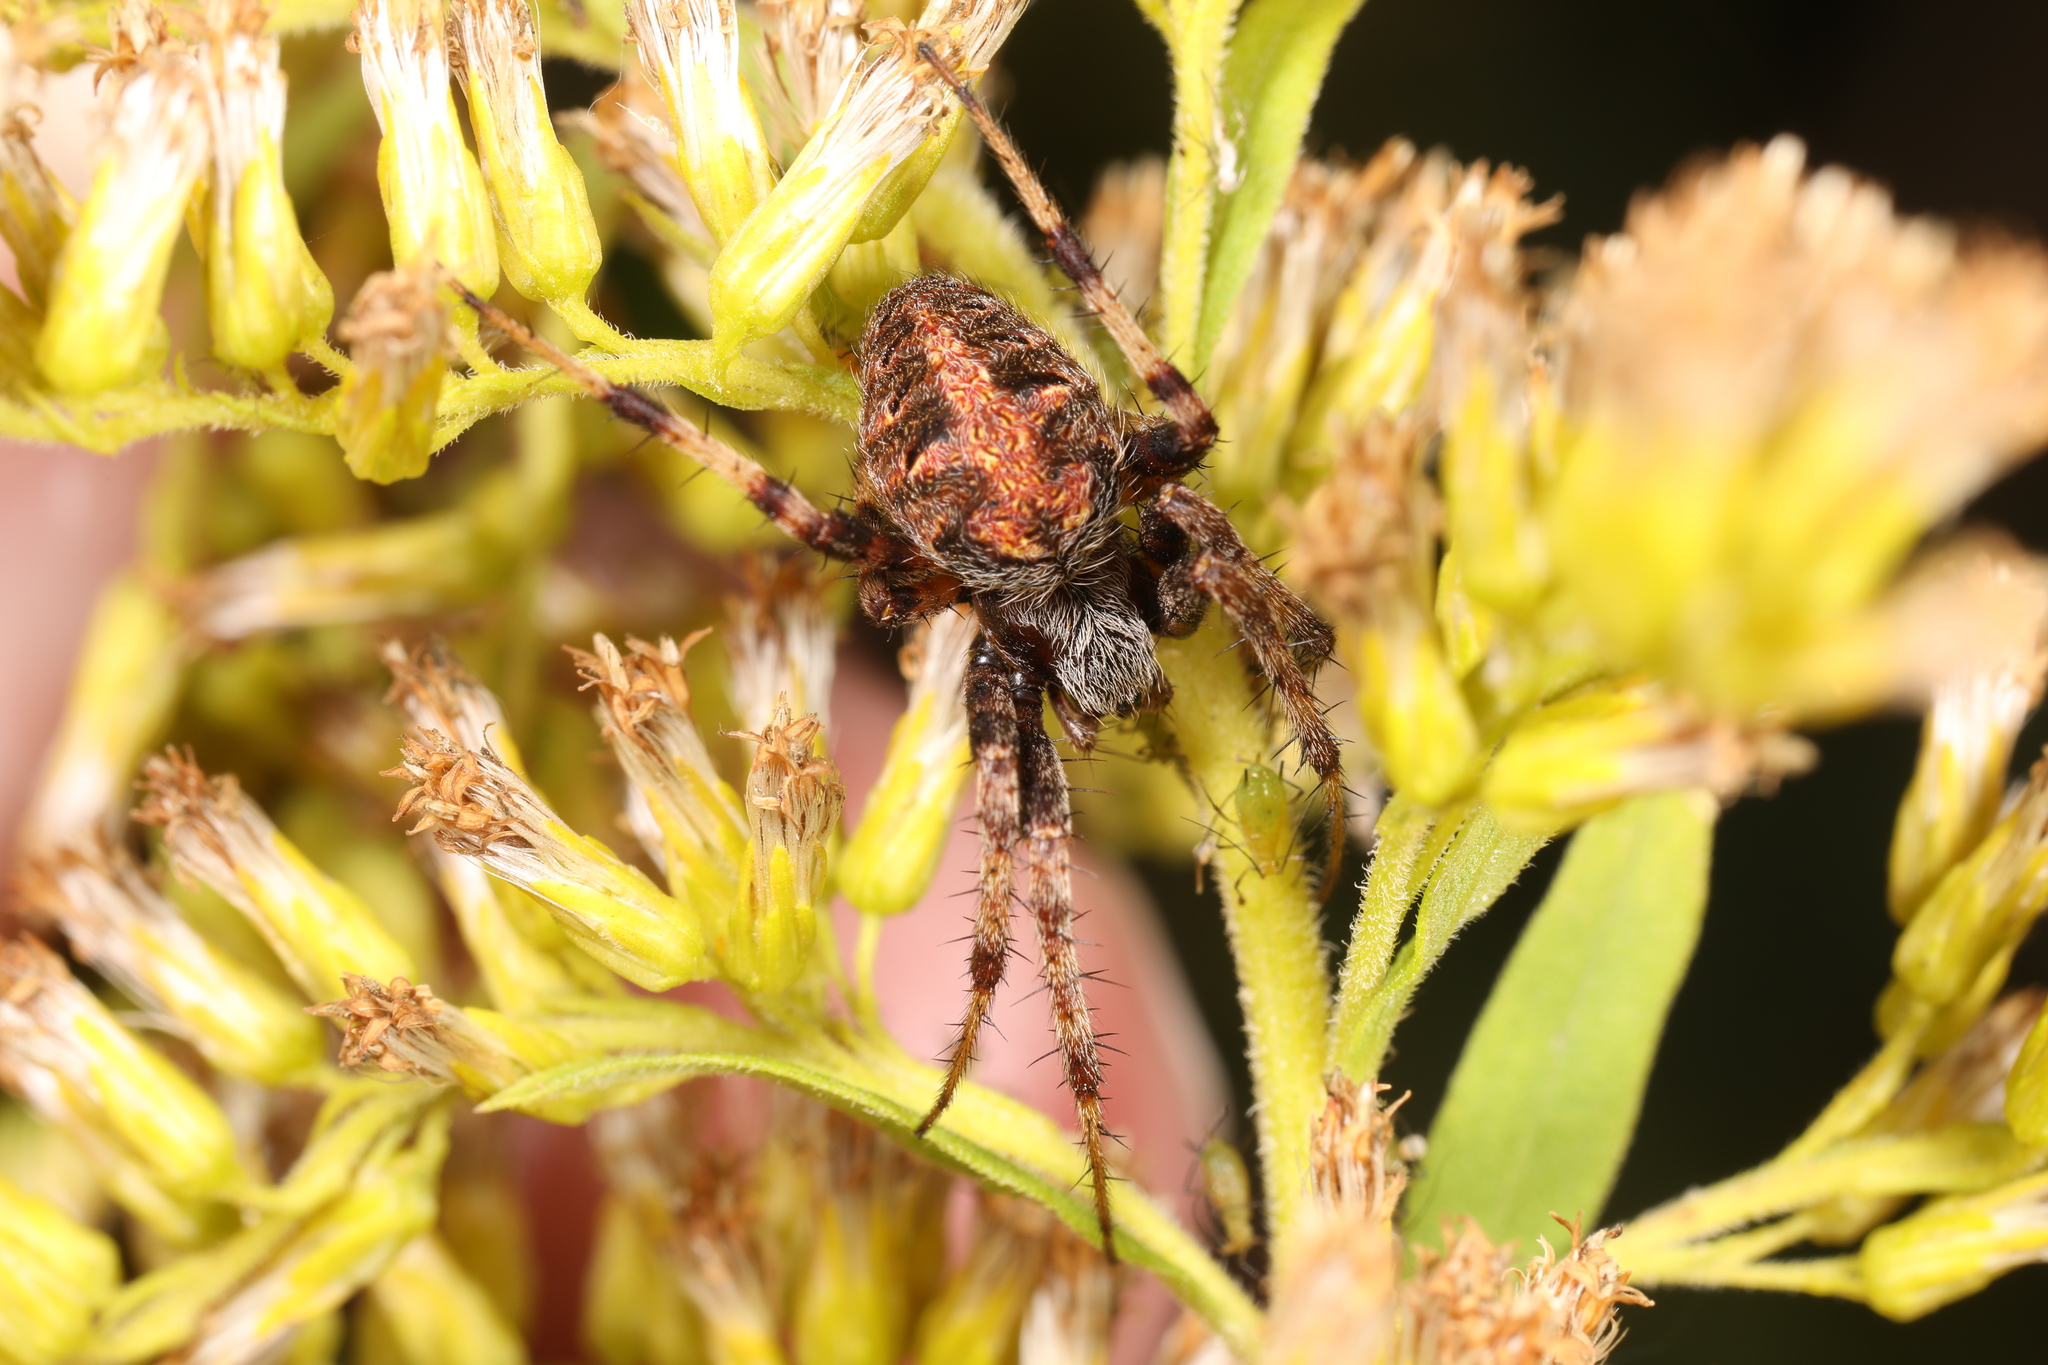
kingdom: Animalia
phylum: Arthropoda
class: Arachnida
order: Araneae
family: Araneidae
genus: Neoscona
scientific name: Neoscona arabesca
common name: Orb weavers
